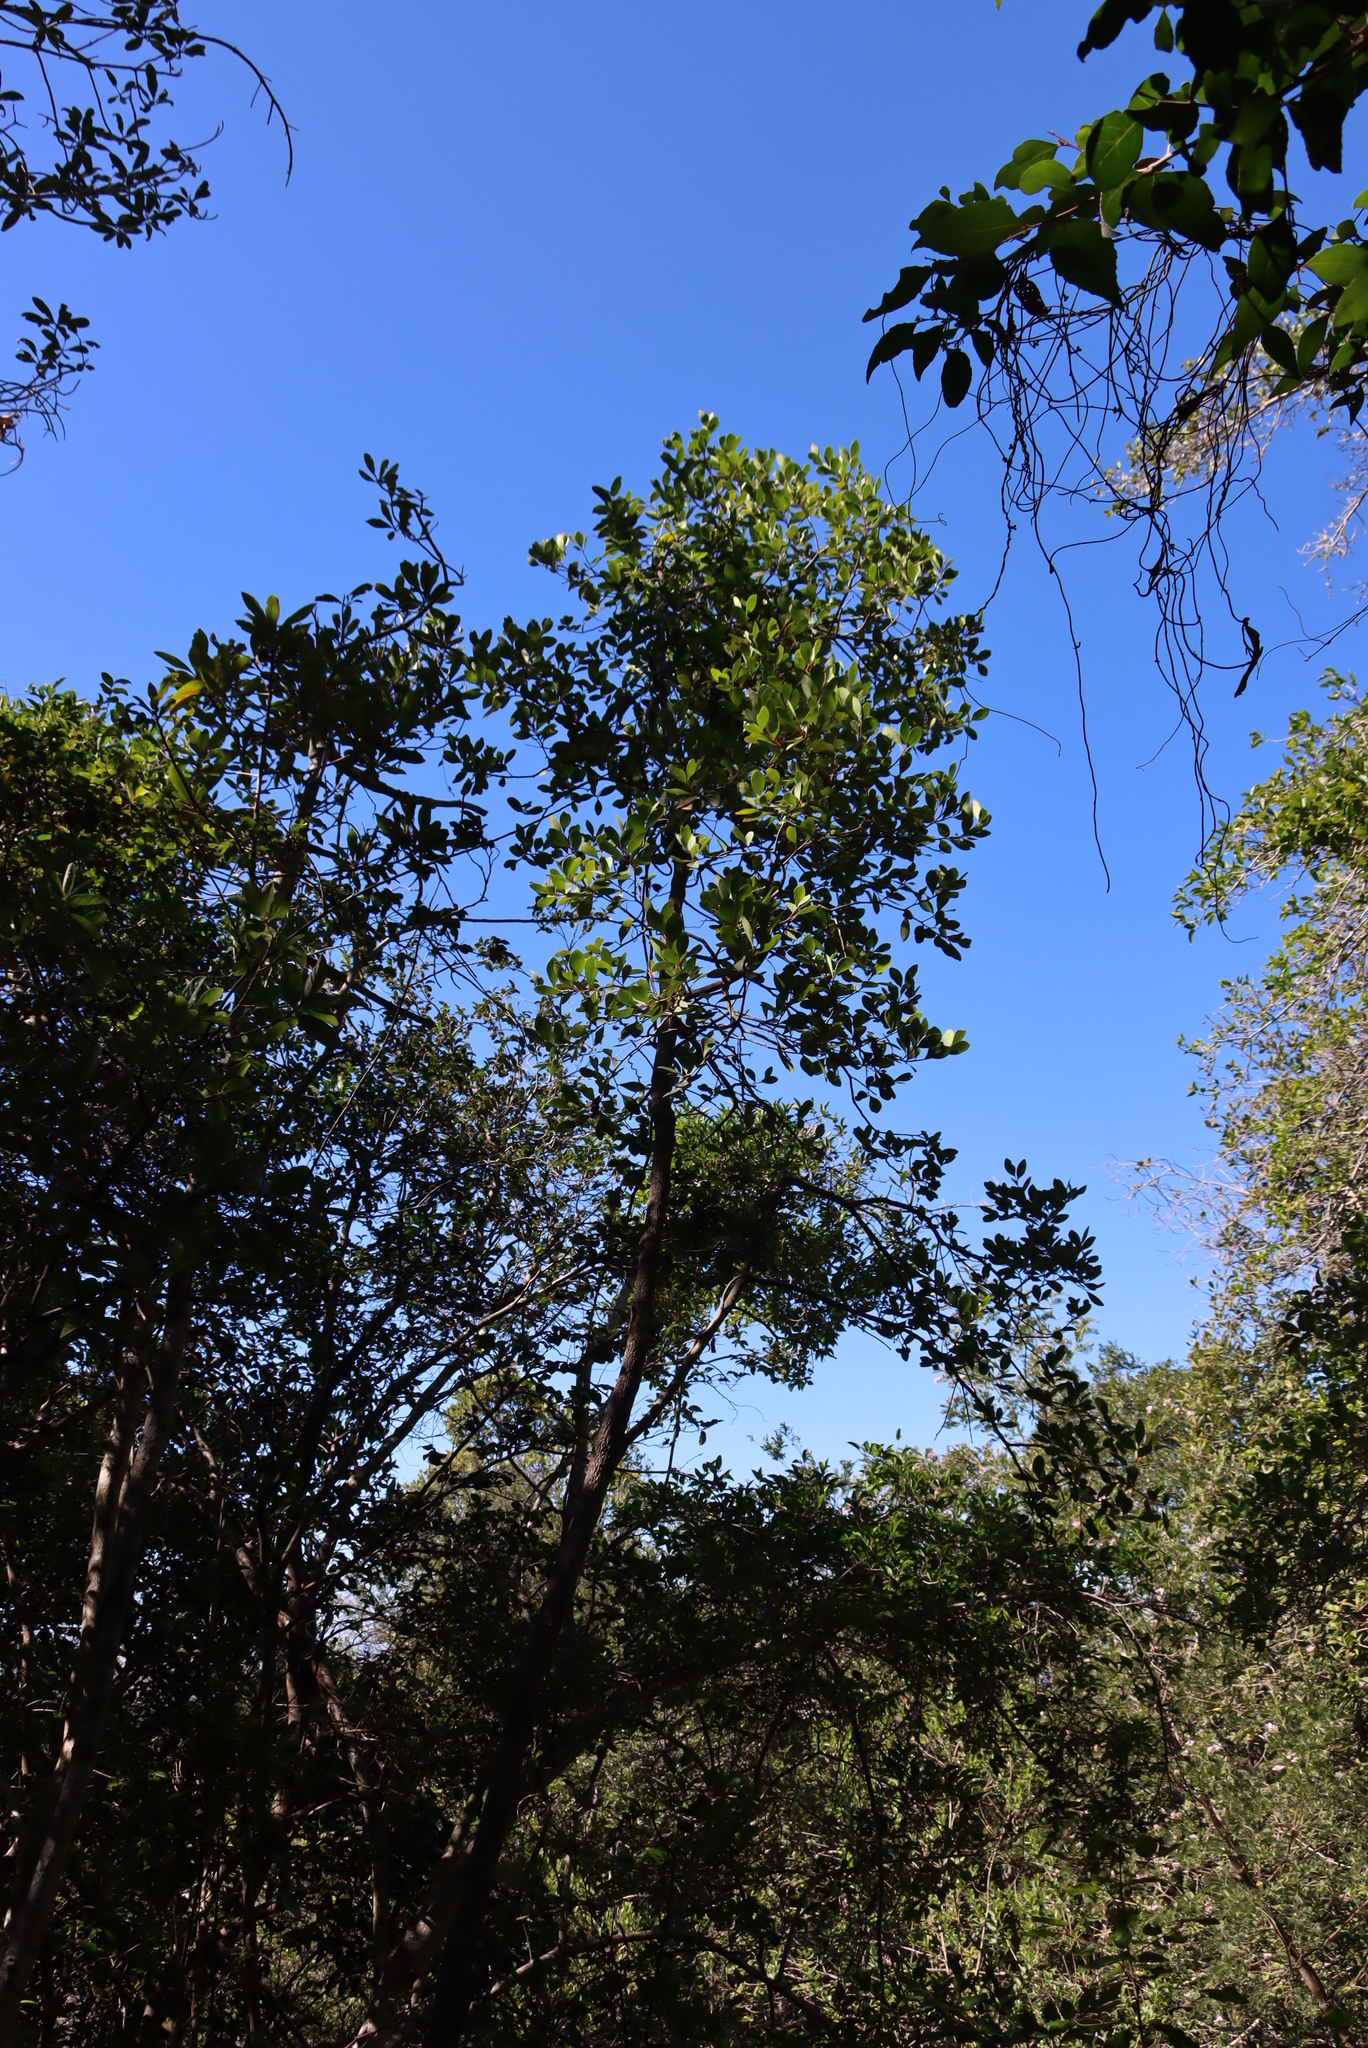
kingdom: Plantae
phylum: Tracheophyta
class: Magnoliopsida
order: Celastrales
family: Celastraceae
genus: Pterocelastrus
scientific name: Pterocelastrus tricuspidatus
